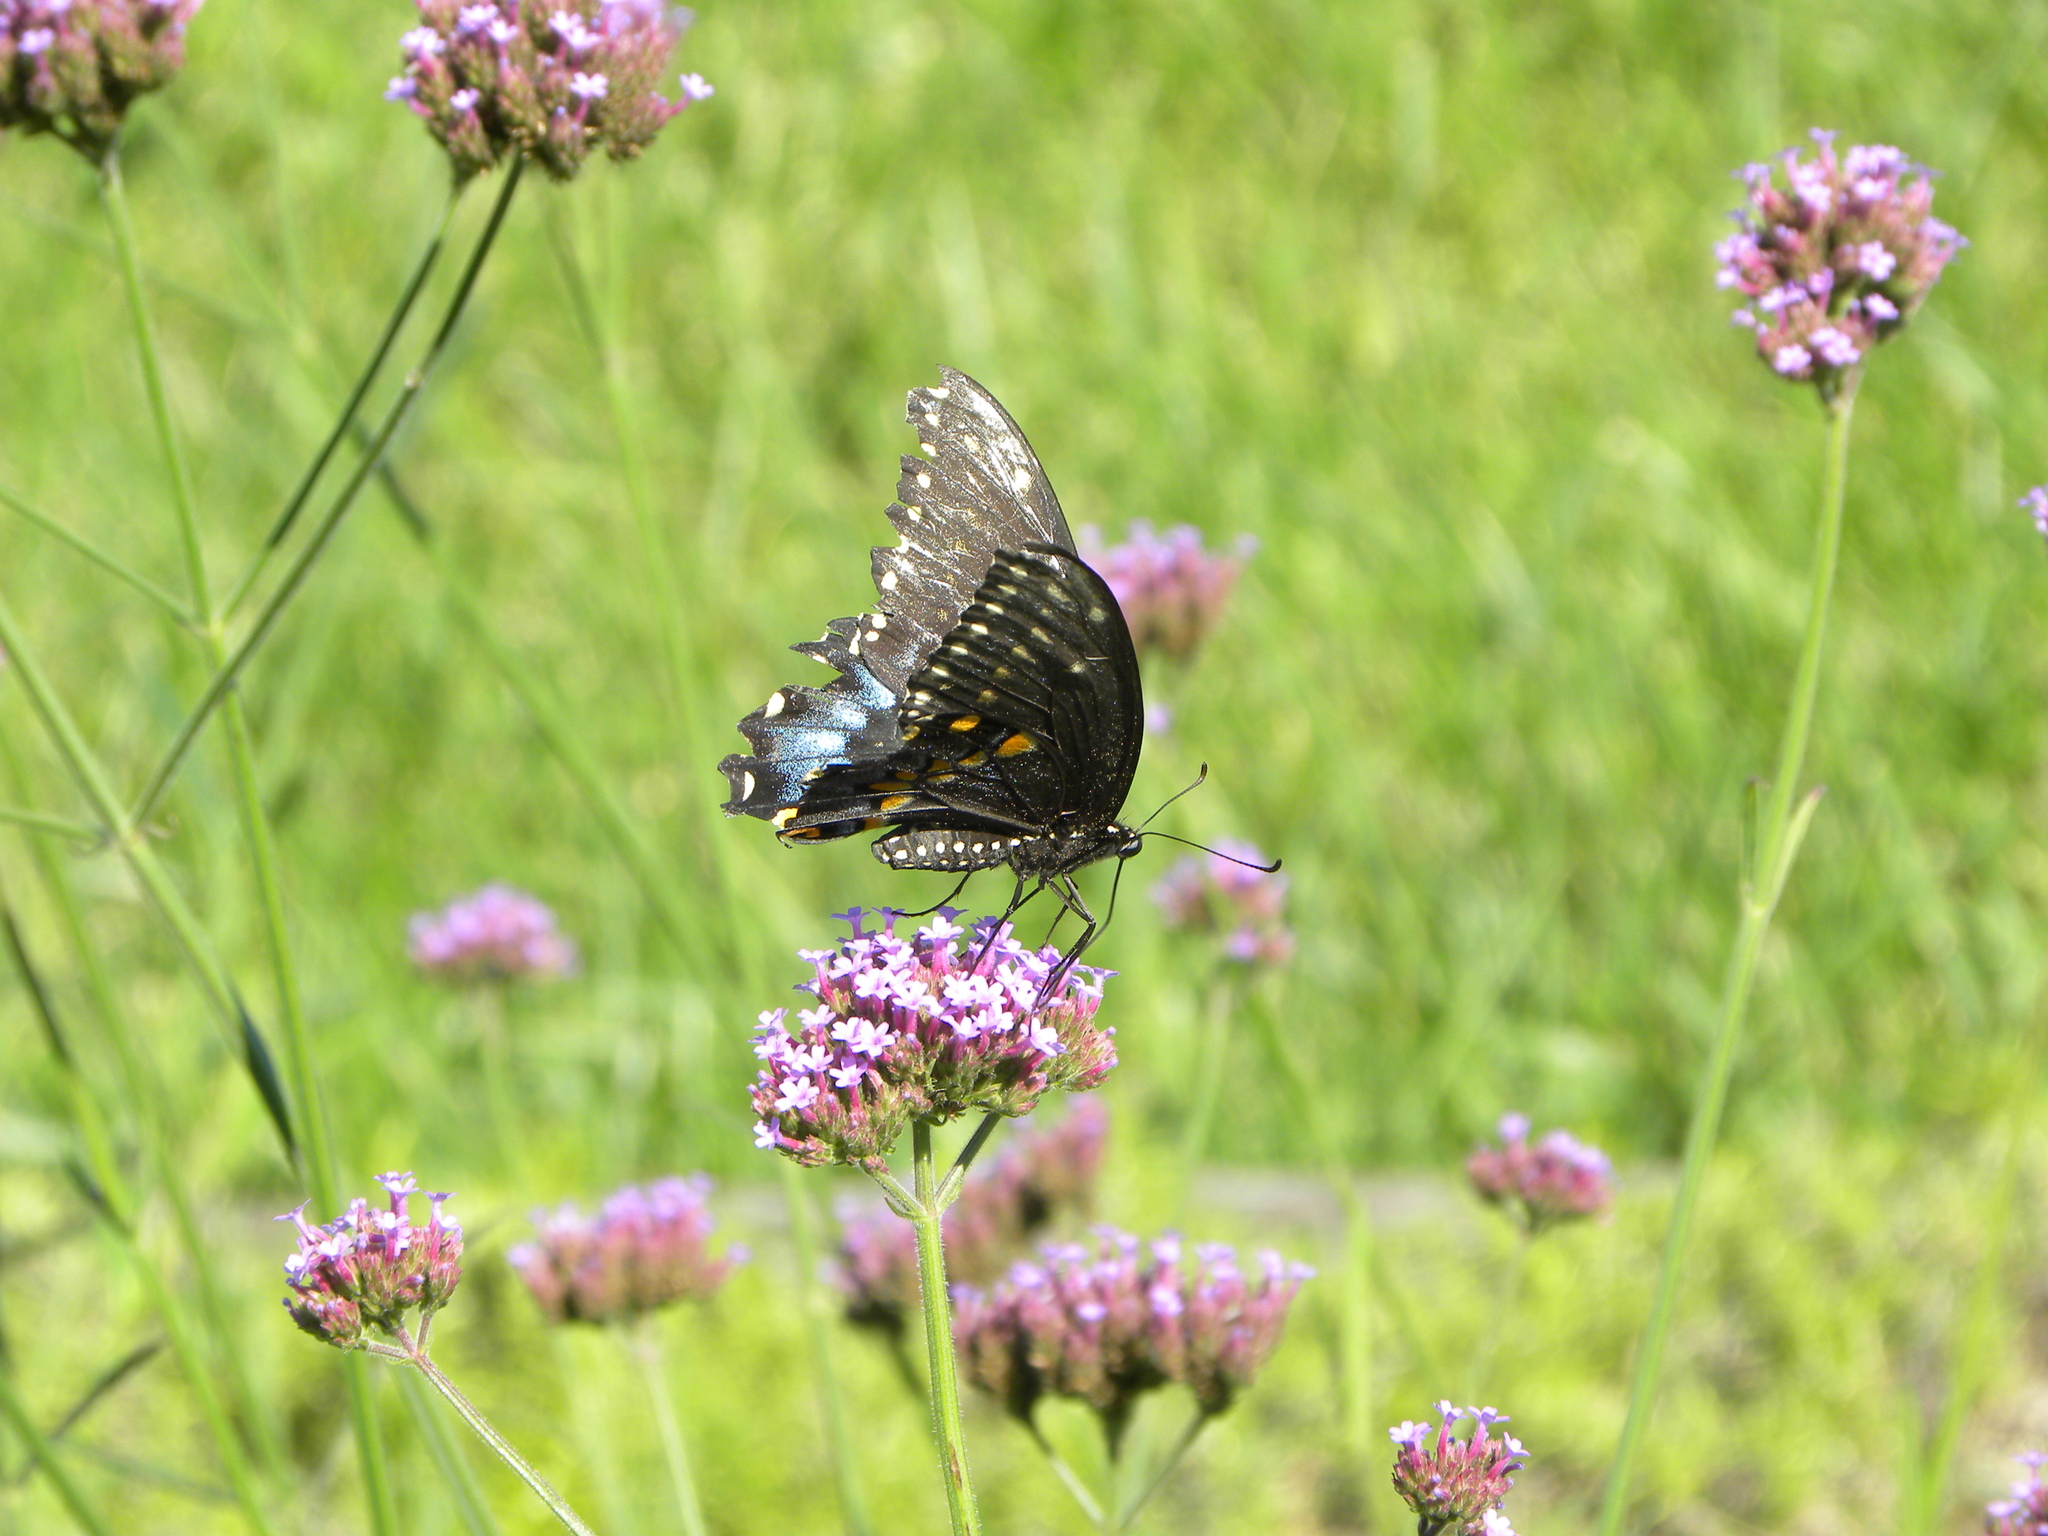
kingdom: Animalia
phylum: Arthropoda
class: Insecta
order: Lepidoptera
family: Papilionidae
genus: Papilio
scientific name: Papilio polyxenes
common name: Black swallowtail
